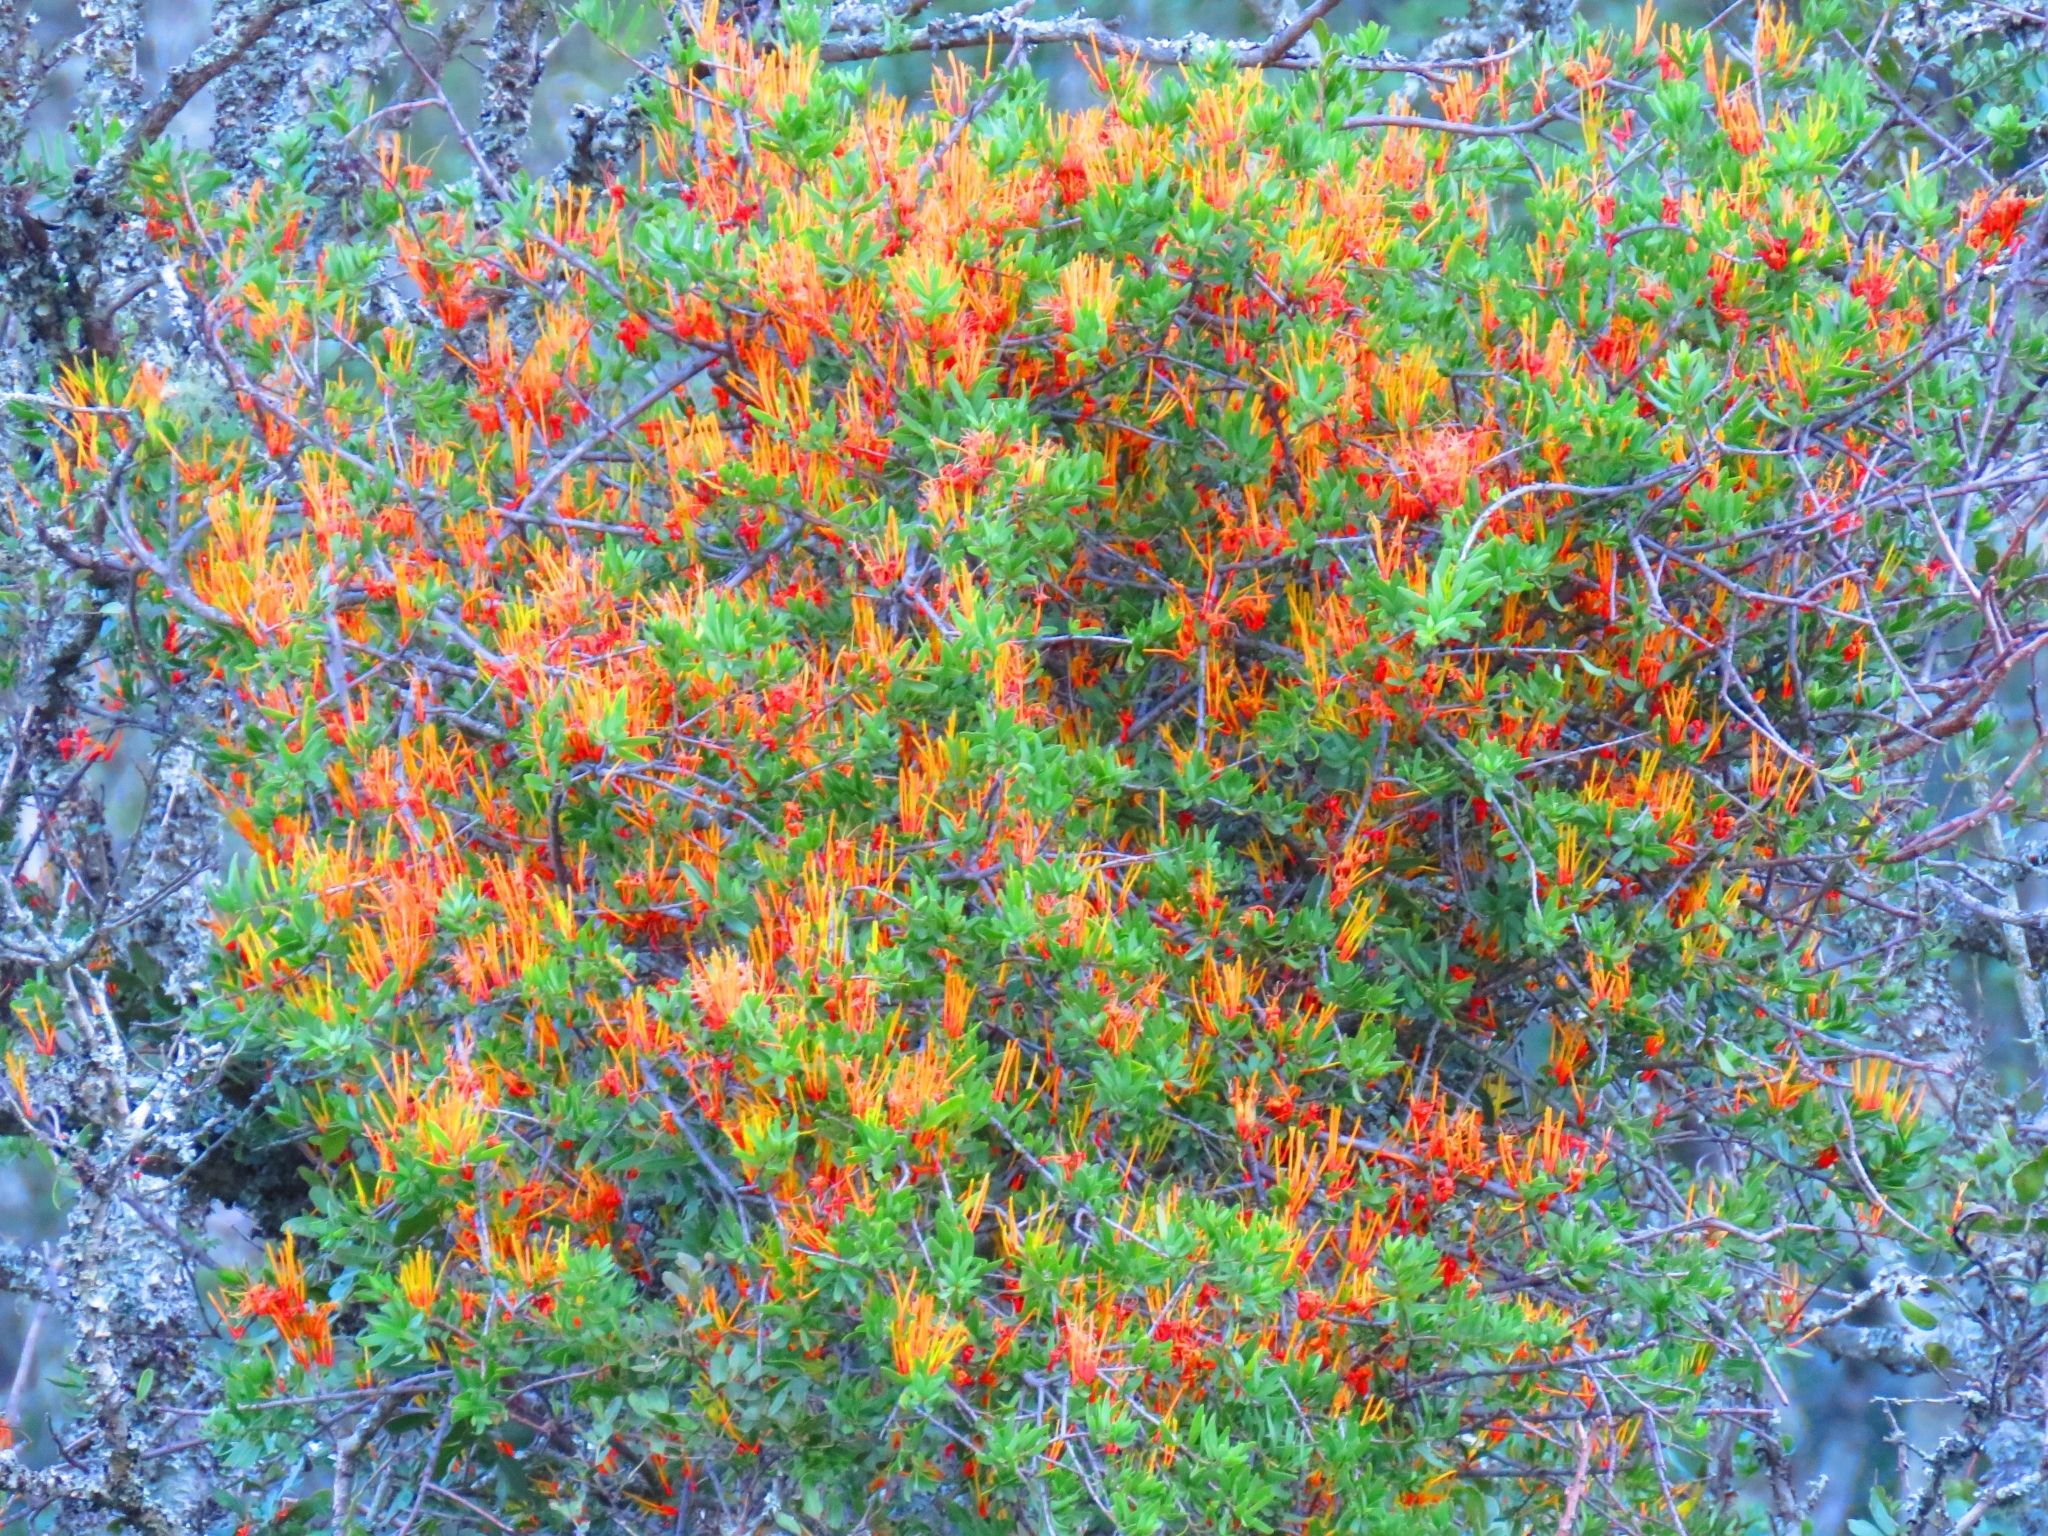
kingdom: Plantae
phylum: Tracheophyta
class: Magnoliopsida
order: Santalales
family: Loranthaceae
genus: Moquiniella
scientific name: Moquiniella rubra
